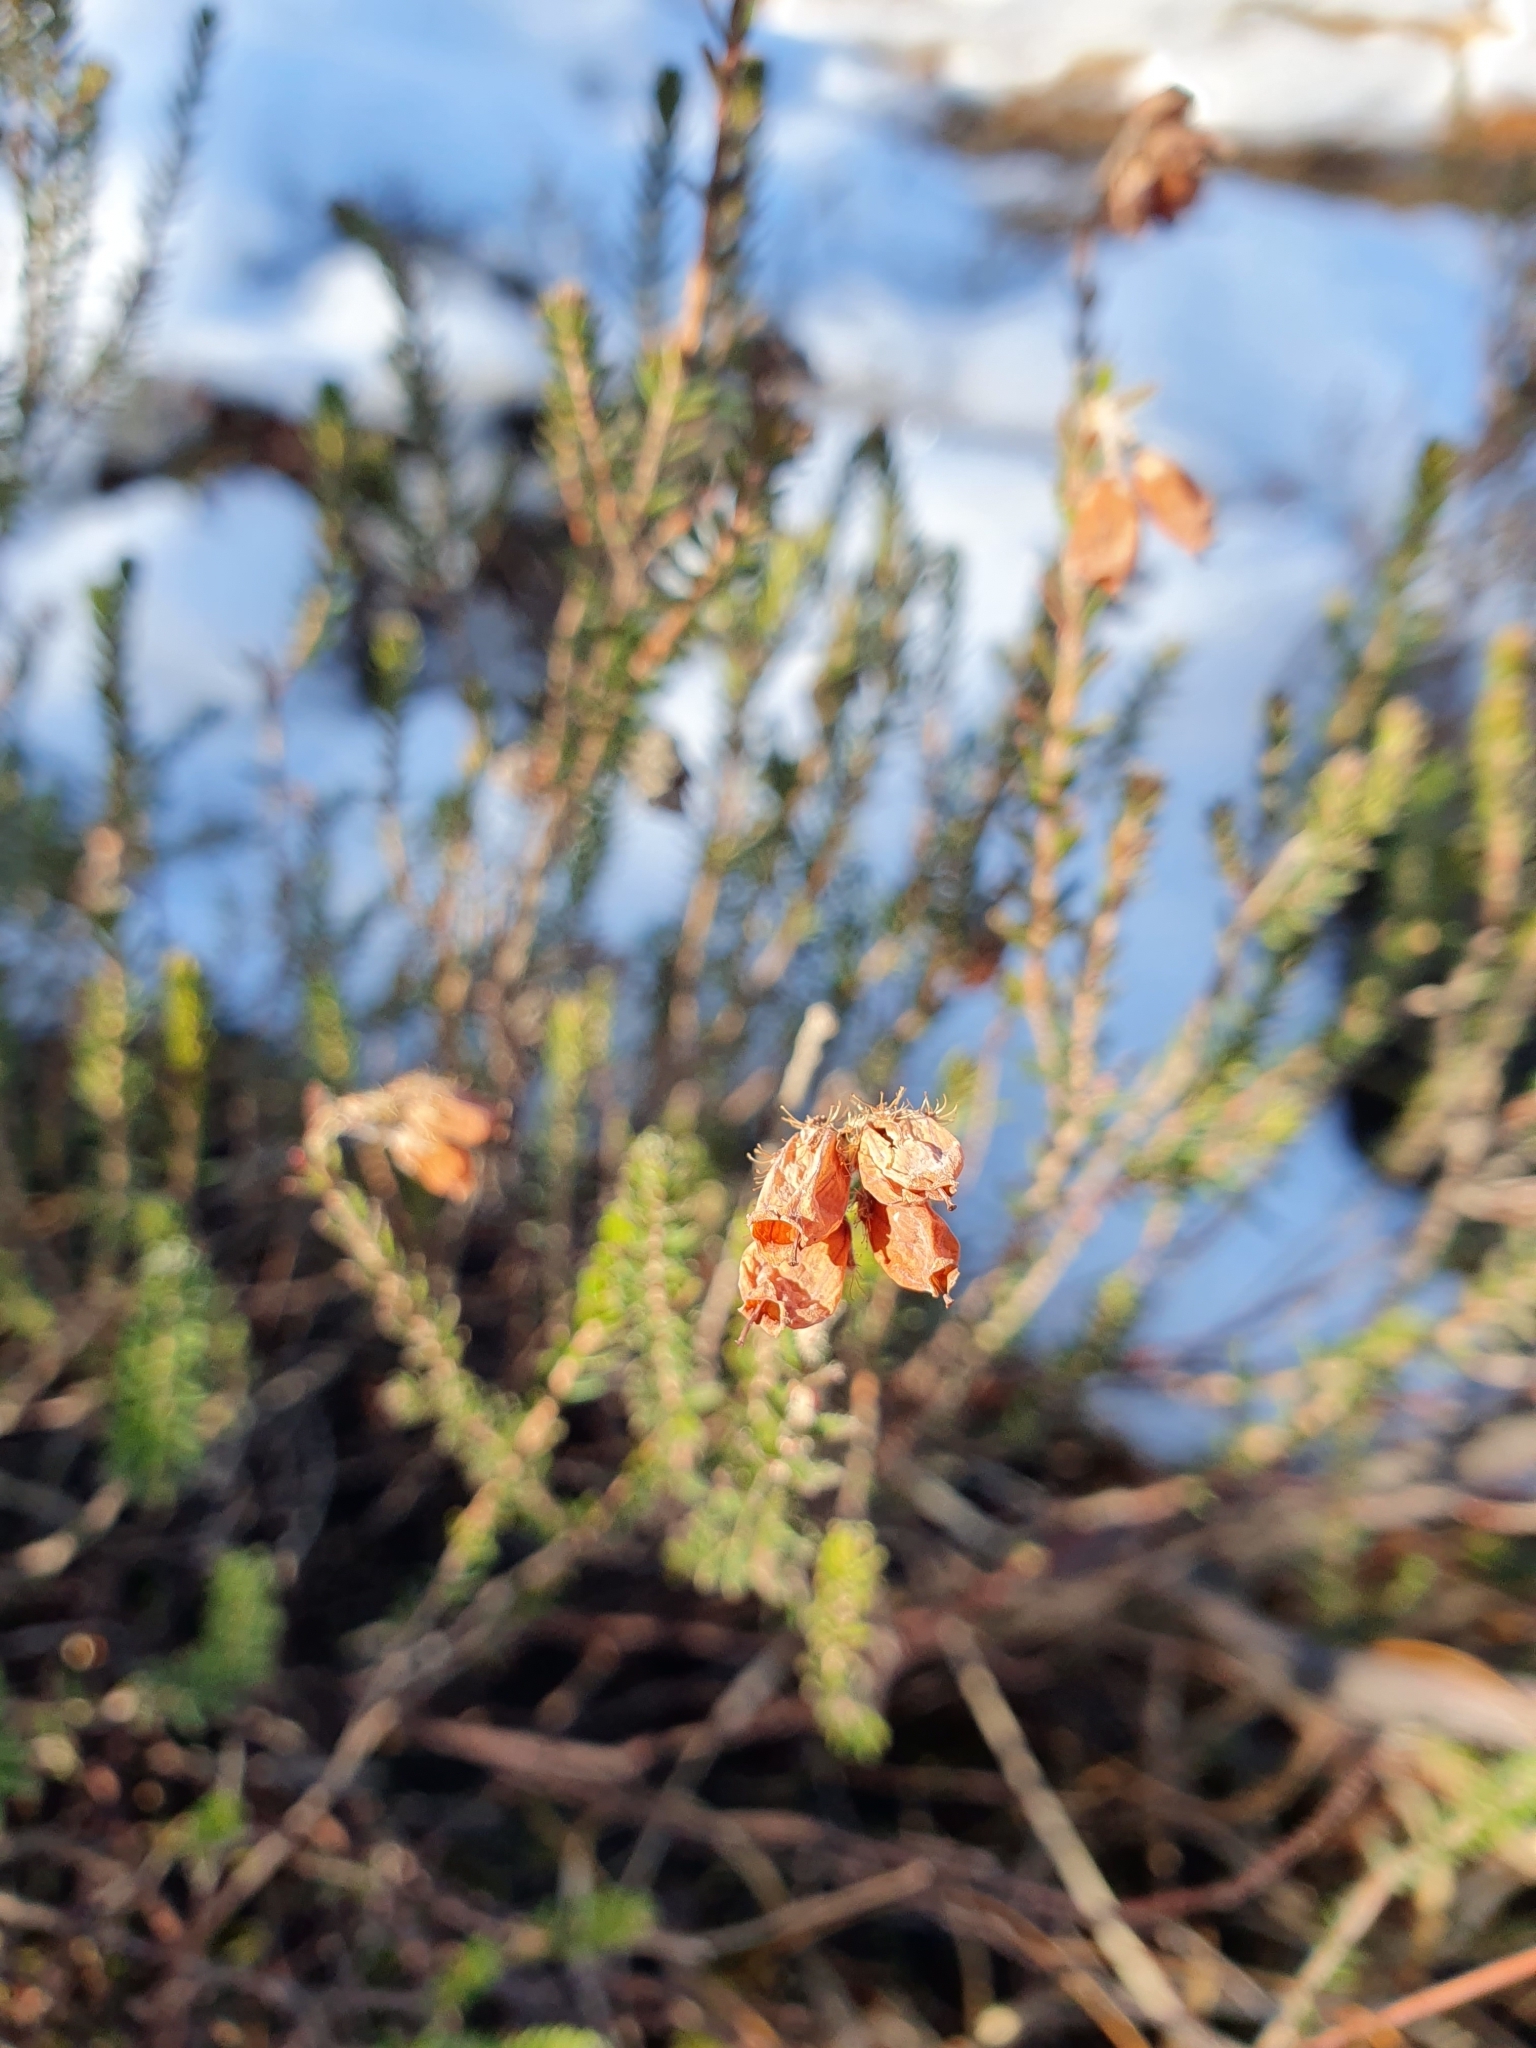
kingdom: Plantae
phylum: Tracheophyta
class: Magnoliopsida
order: Ericales
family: Ericaceae
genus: Erica
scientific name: Erica tetralix
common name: Cross-leaved heath
